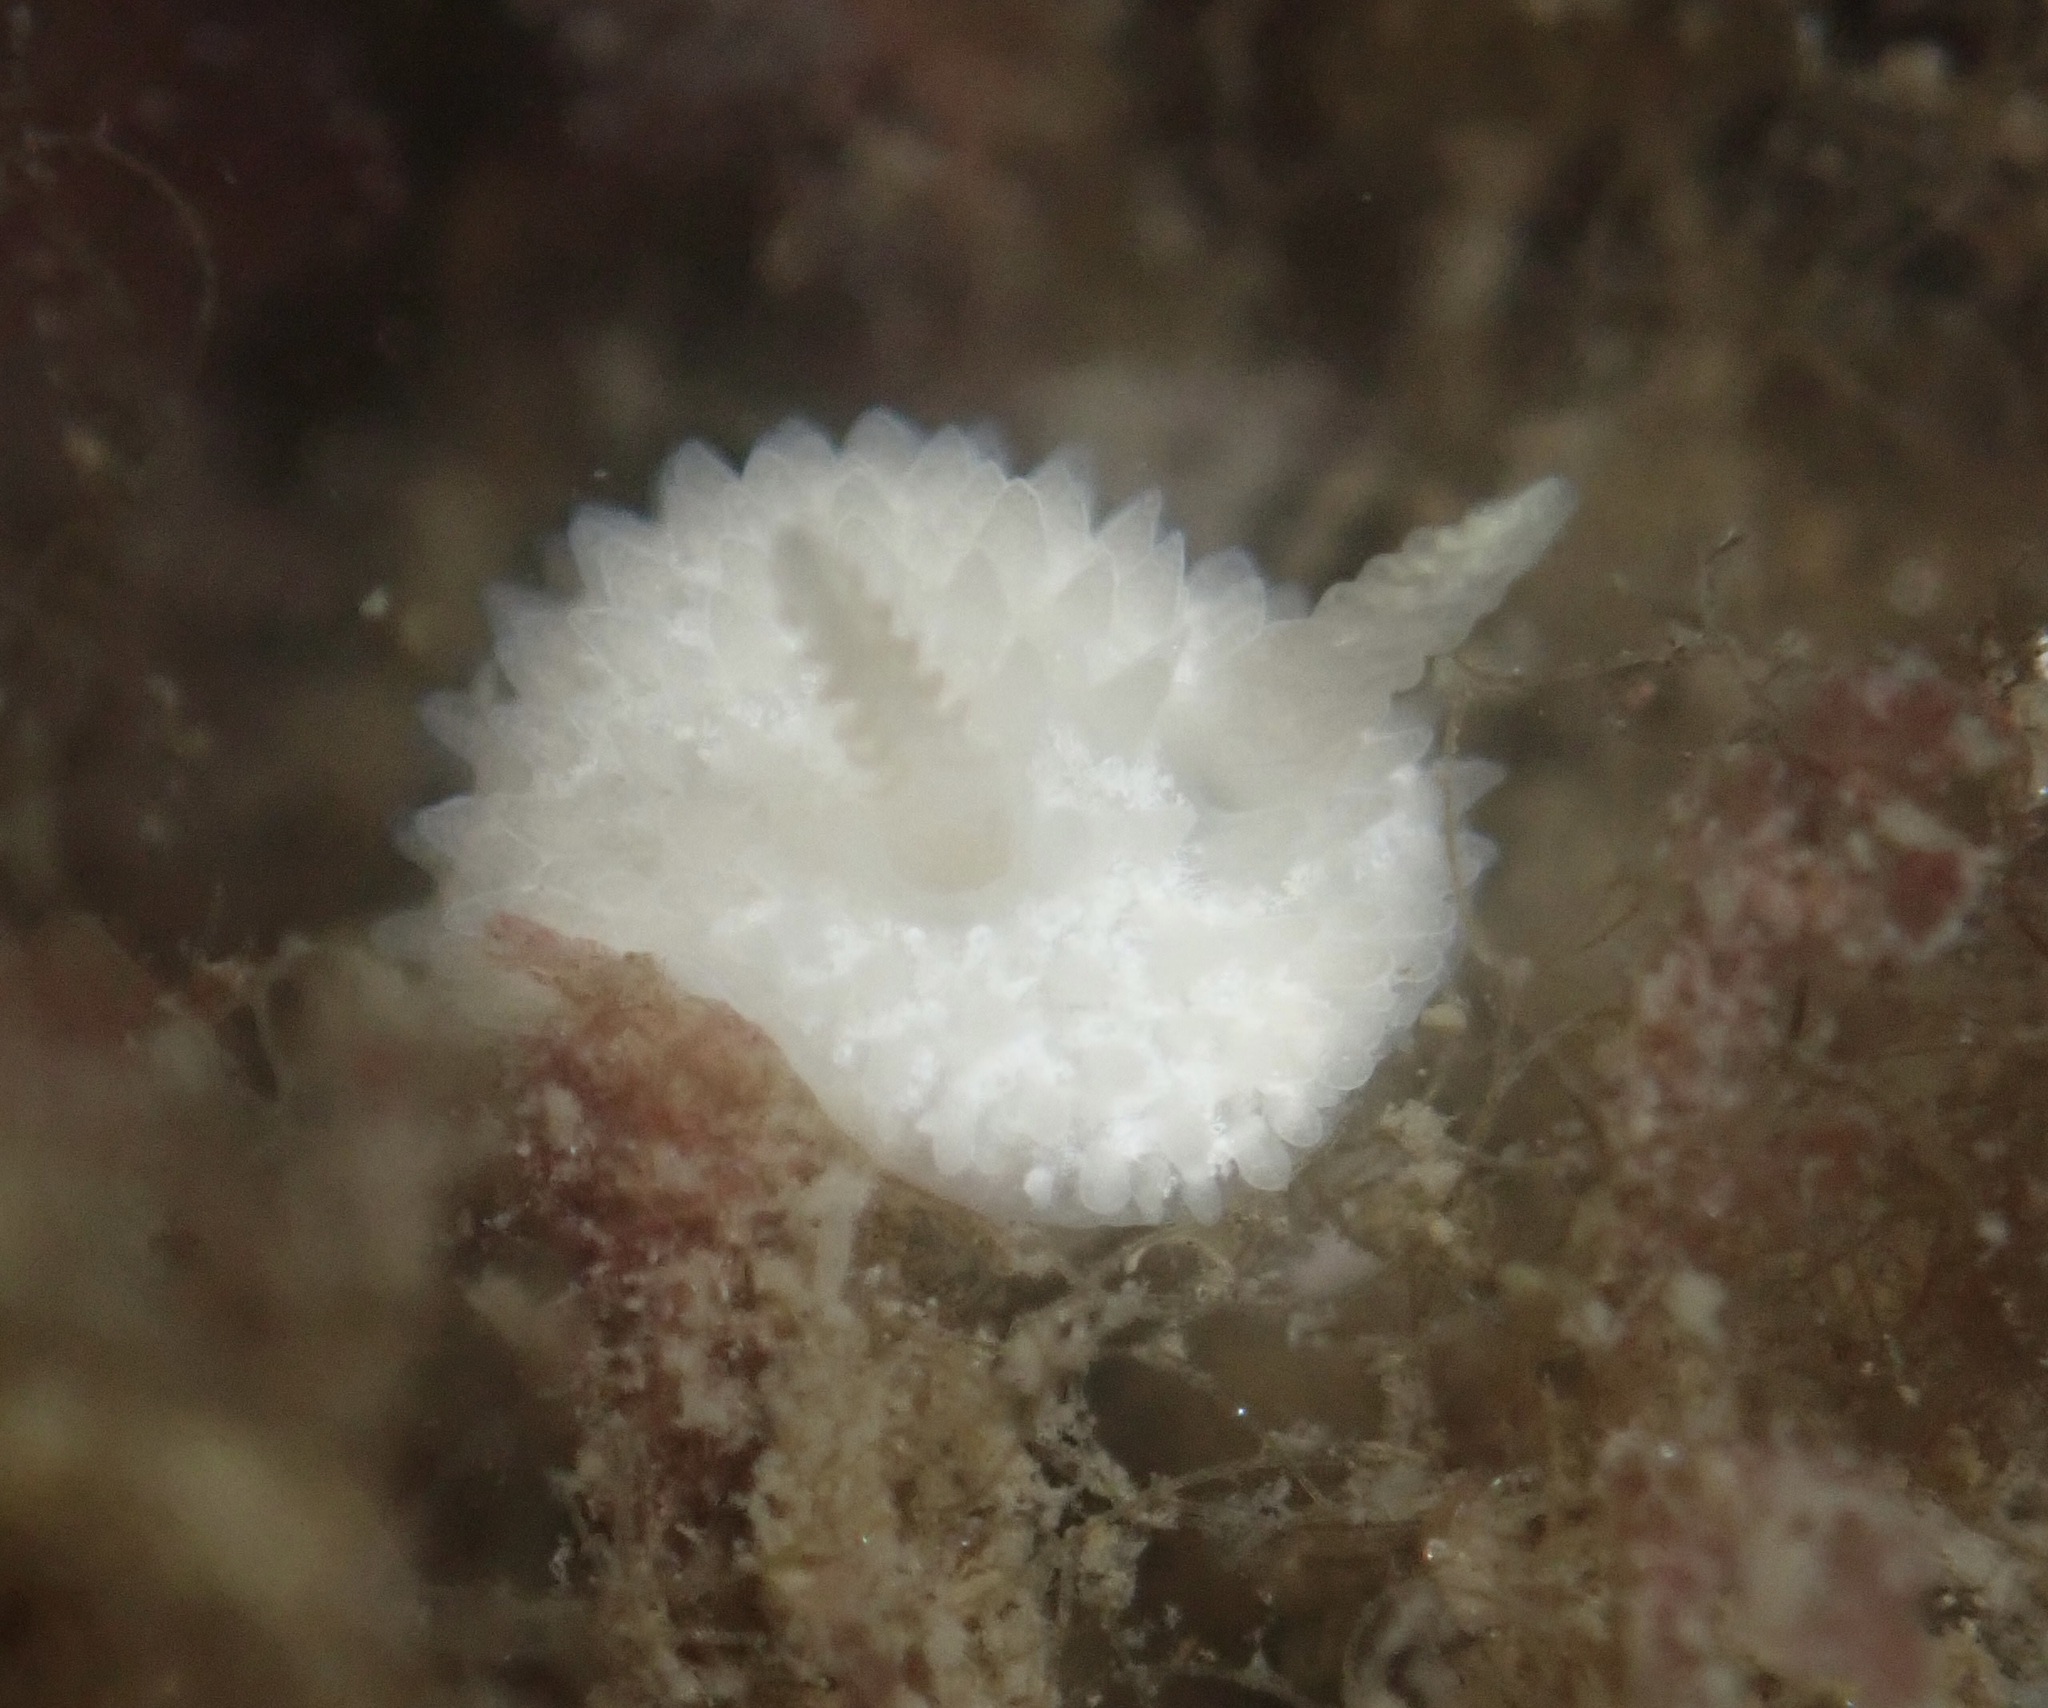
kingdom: Animalia
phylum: Mollusca
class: Gastropoda
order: Nudibranchia
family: Calycidorididae
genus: Diaphorodoris
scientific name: Diaphorodoris lirulatocauda
